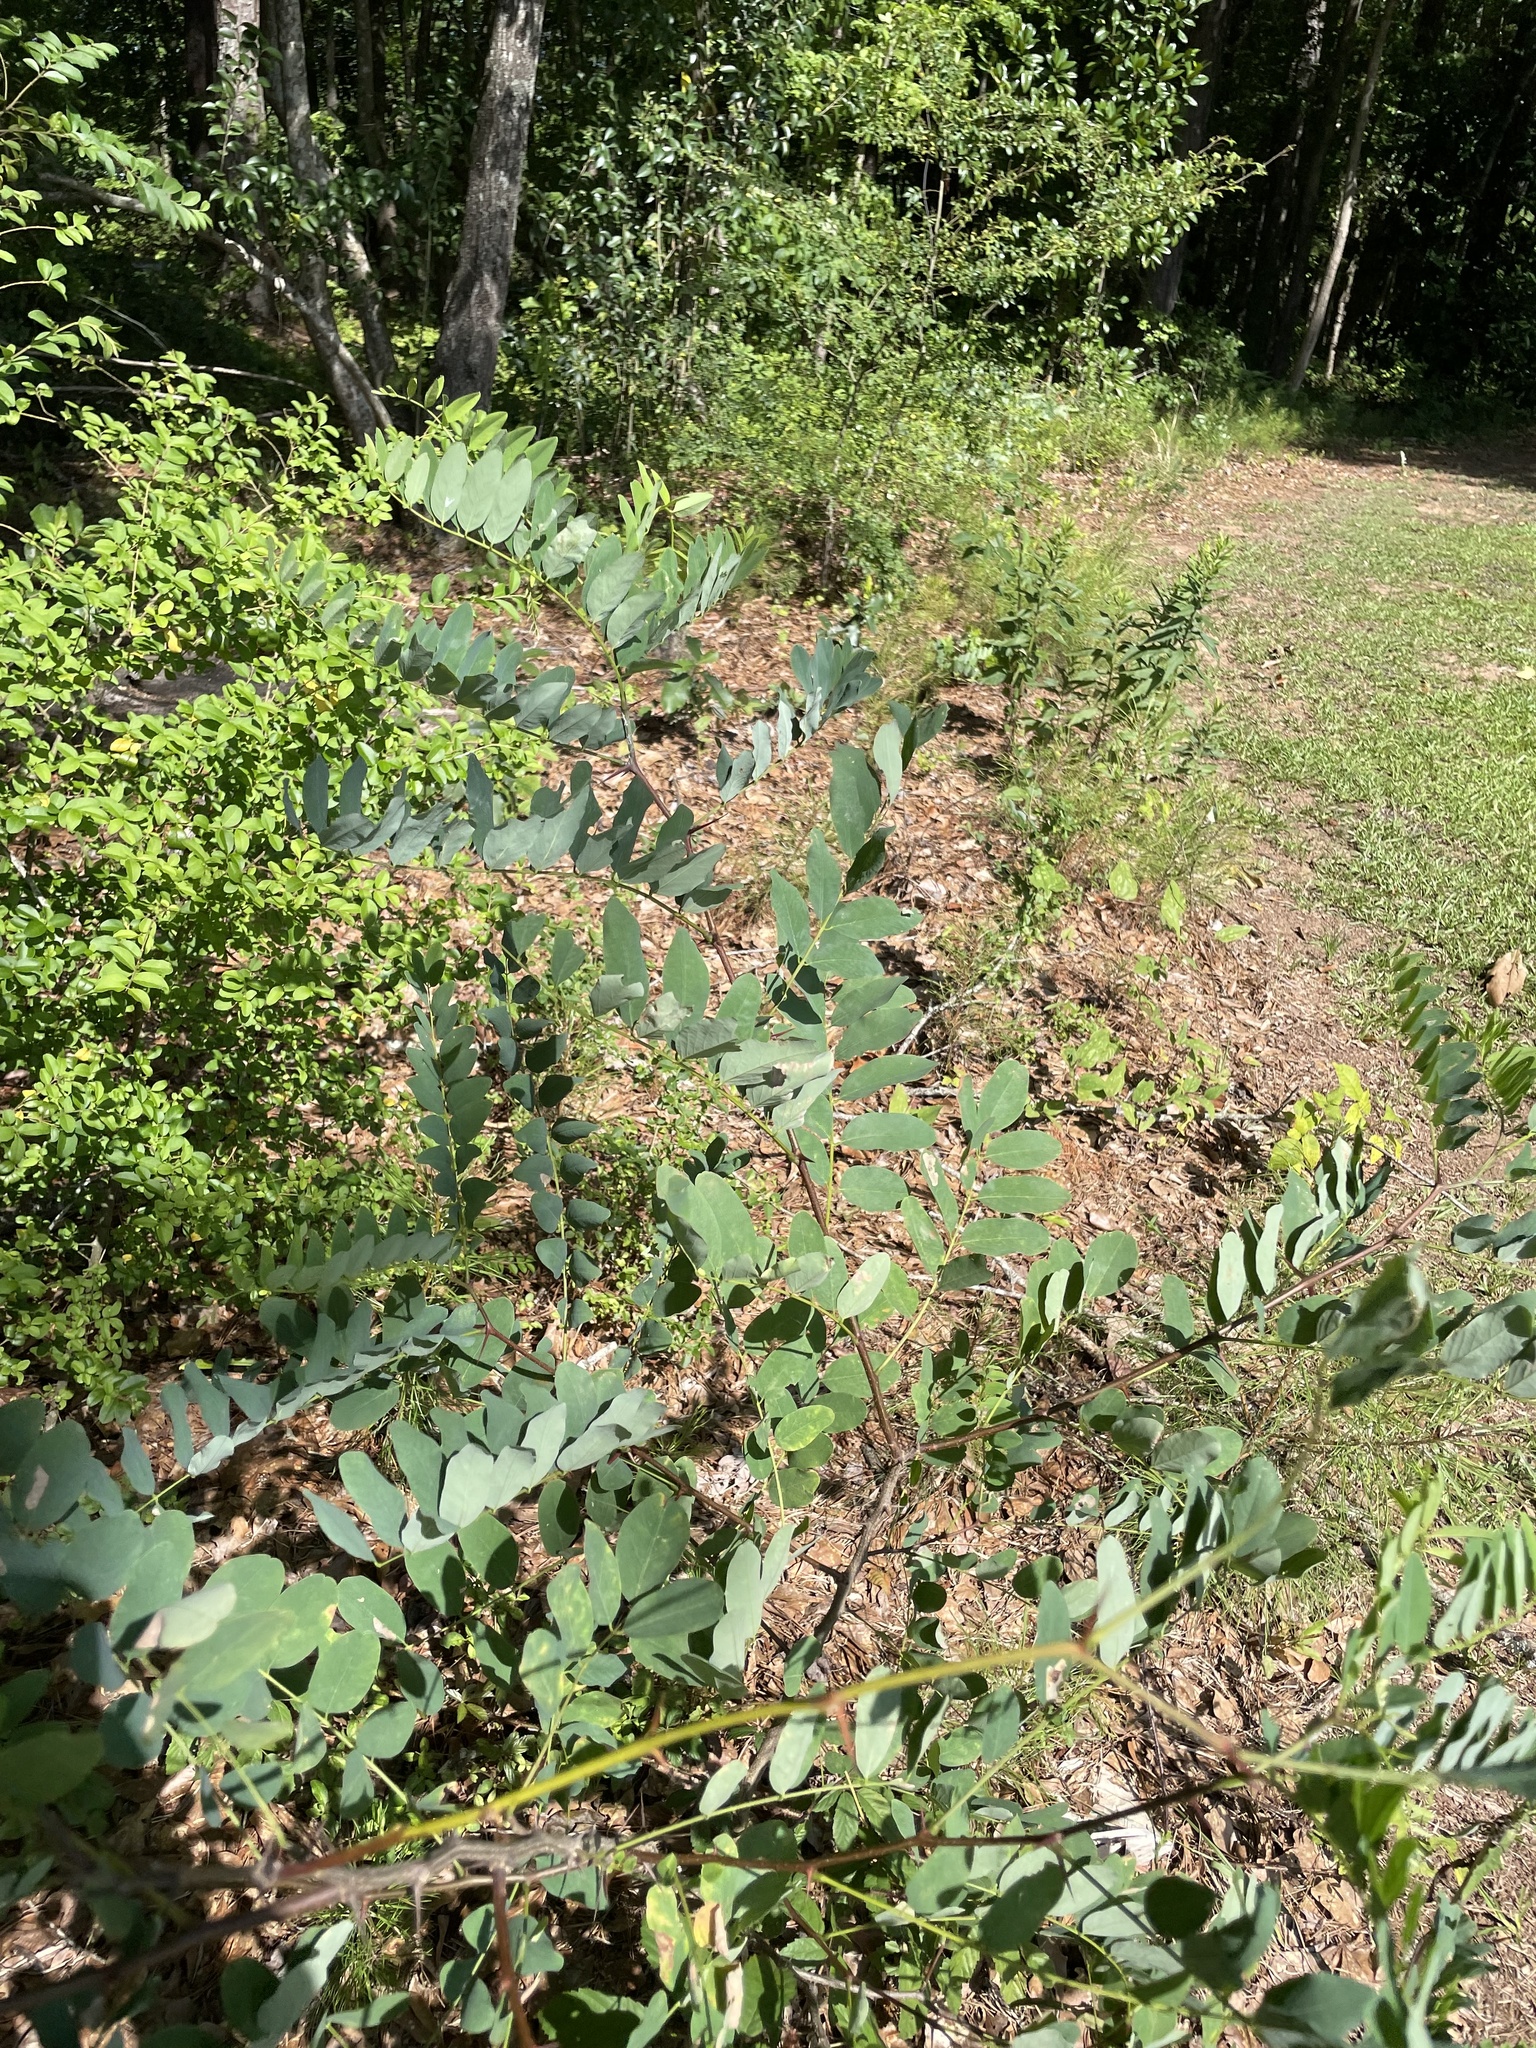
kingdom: Plantae
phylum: Tracheophyta
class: Magnoliopsida
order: Fabales
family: Fabaceae
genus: Robinia
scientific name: Robinia hispida
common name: Bristly locust
